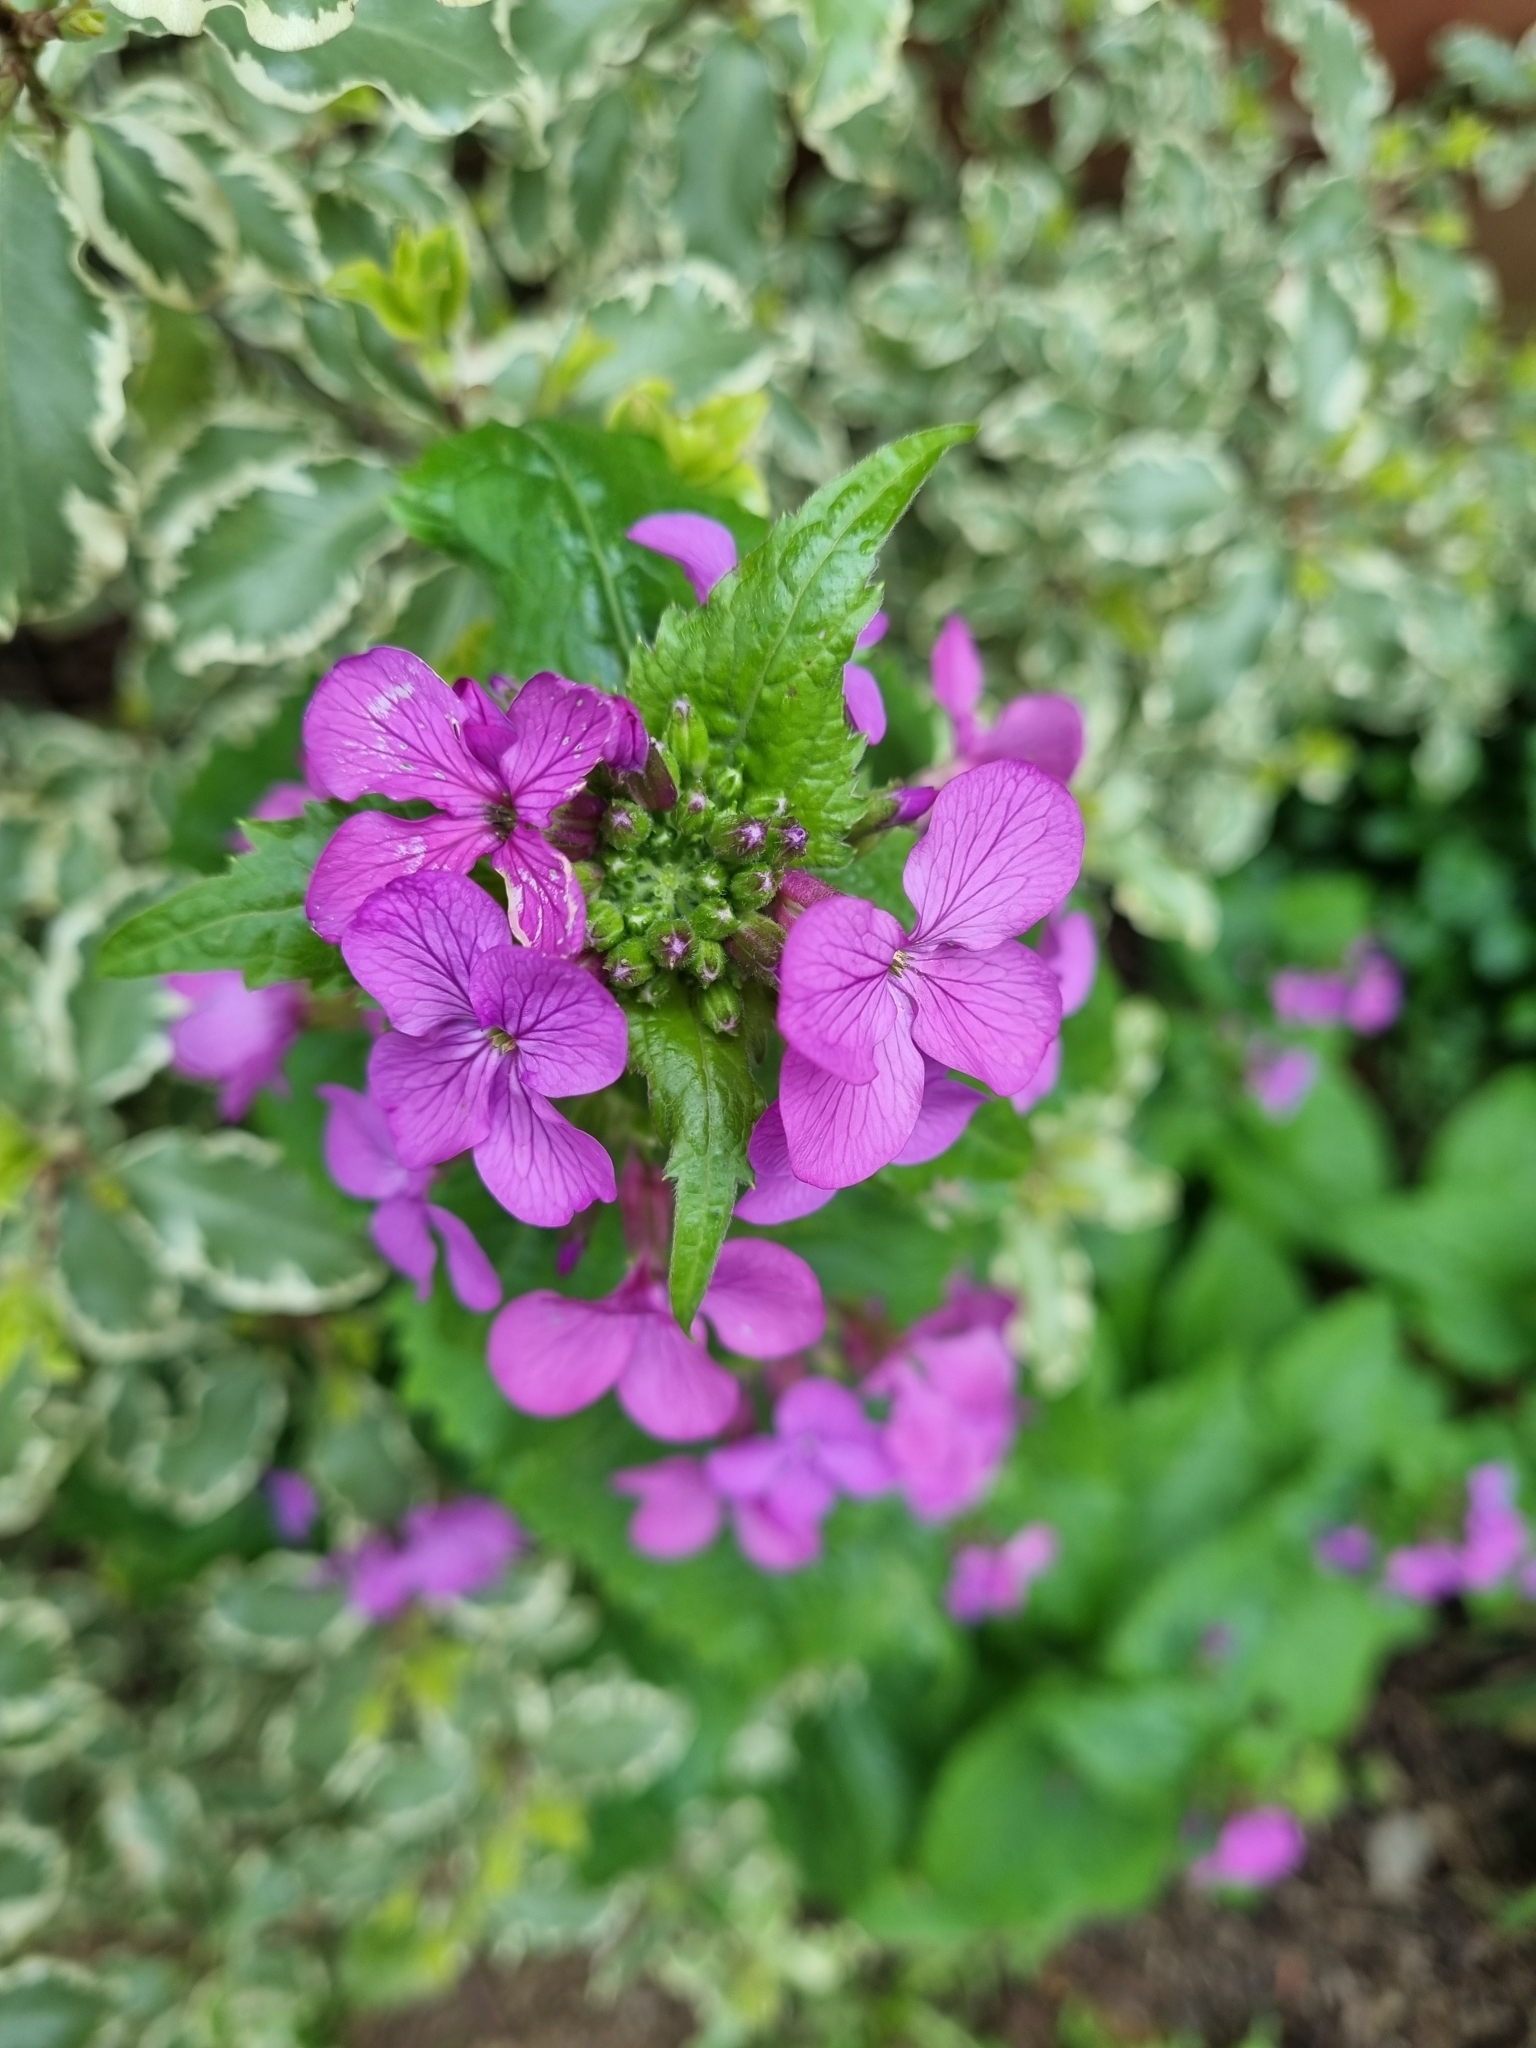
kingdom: Plantae
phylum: Tracheophyta
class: Magnoliopsida
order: Brassicales
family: Brassicaceae
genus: Lunaria
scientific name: Lunaria annua
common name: Honesty
